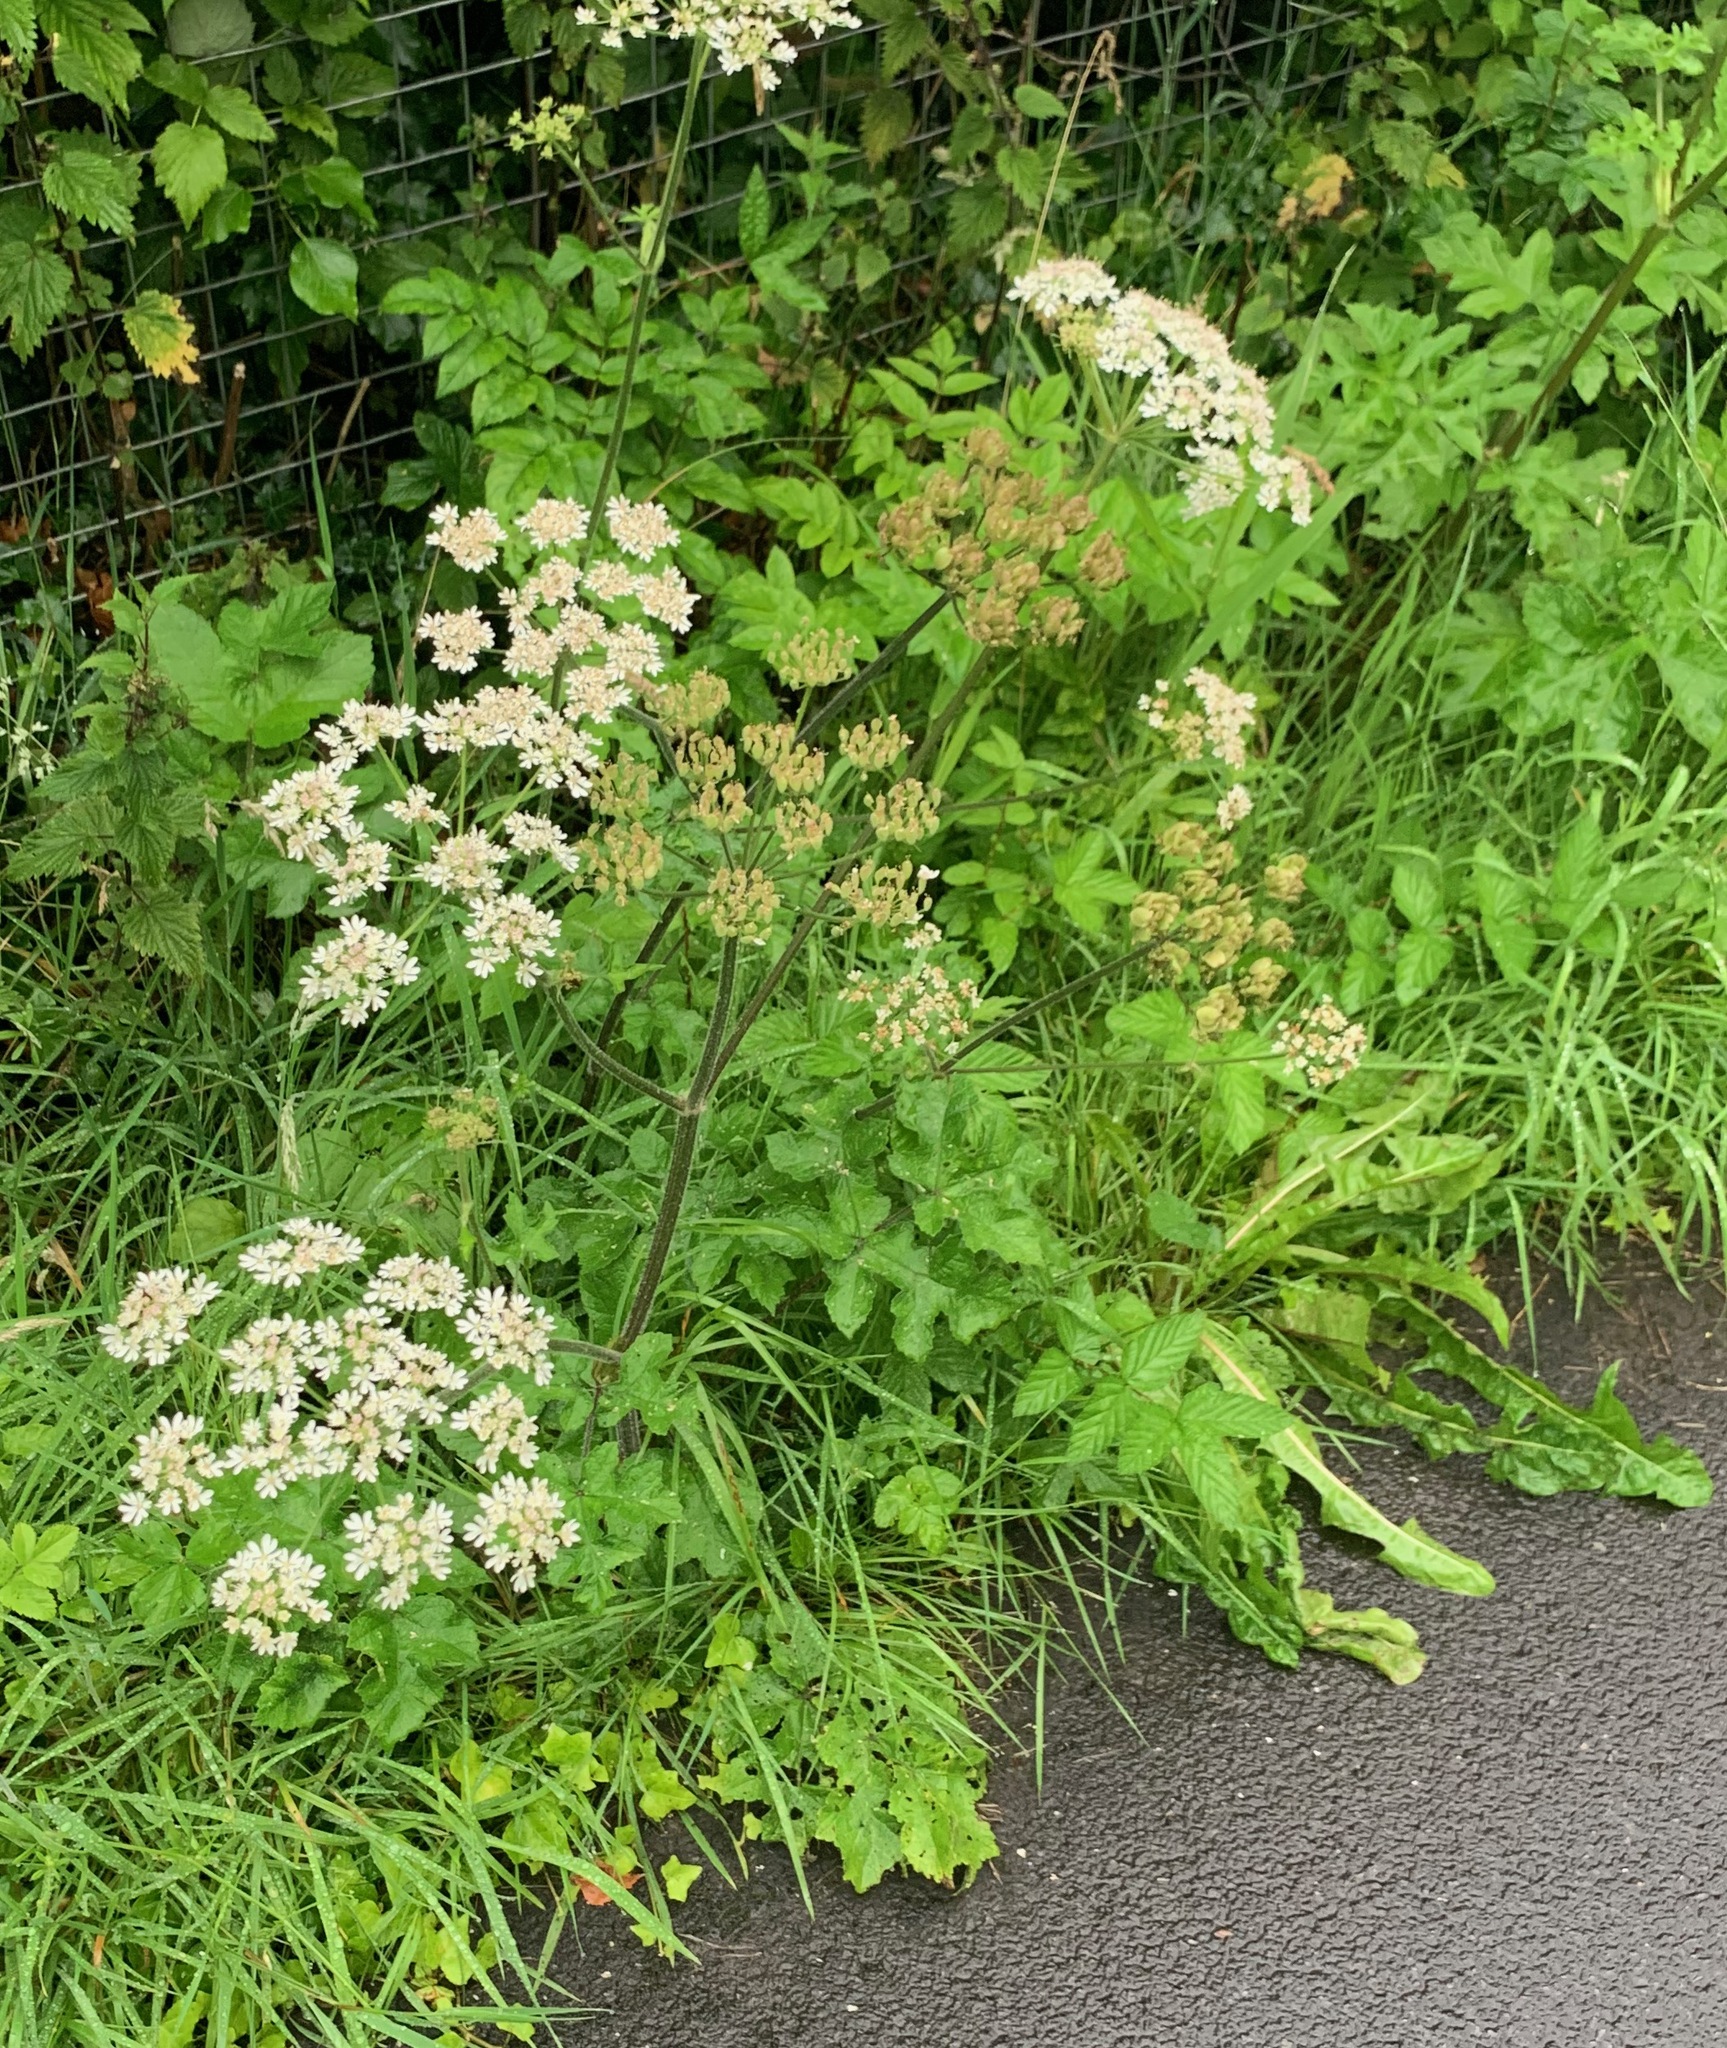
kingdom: Plantae
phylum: Tracheophyta
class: Magnoliopsida
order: Apiales
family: Apiaceae
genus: Heracleum
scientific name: Heracleum sphondylium
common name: Hogweed
